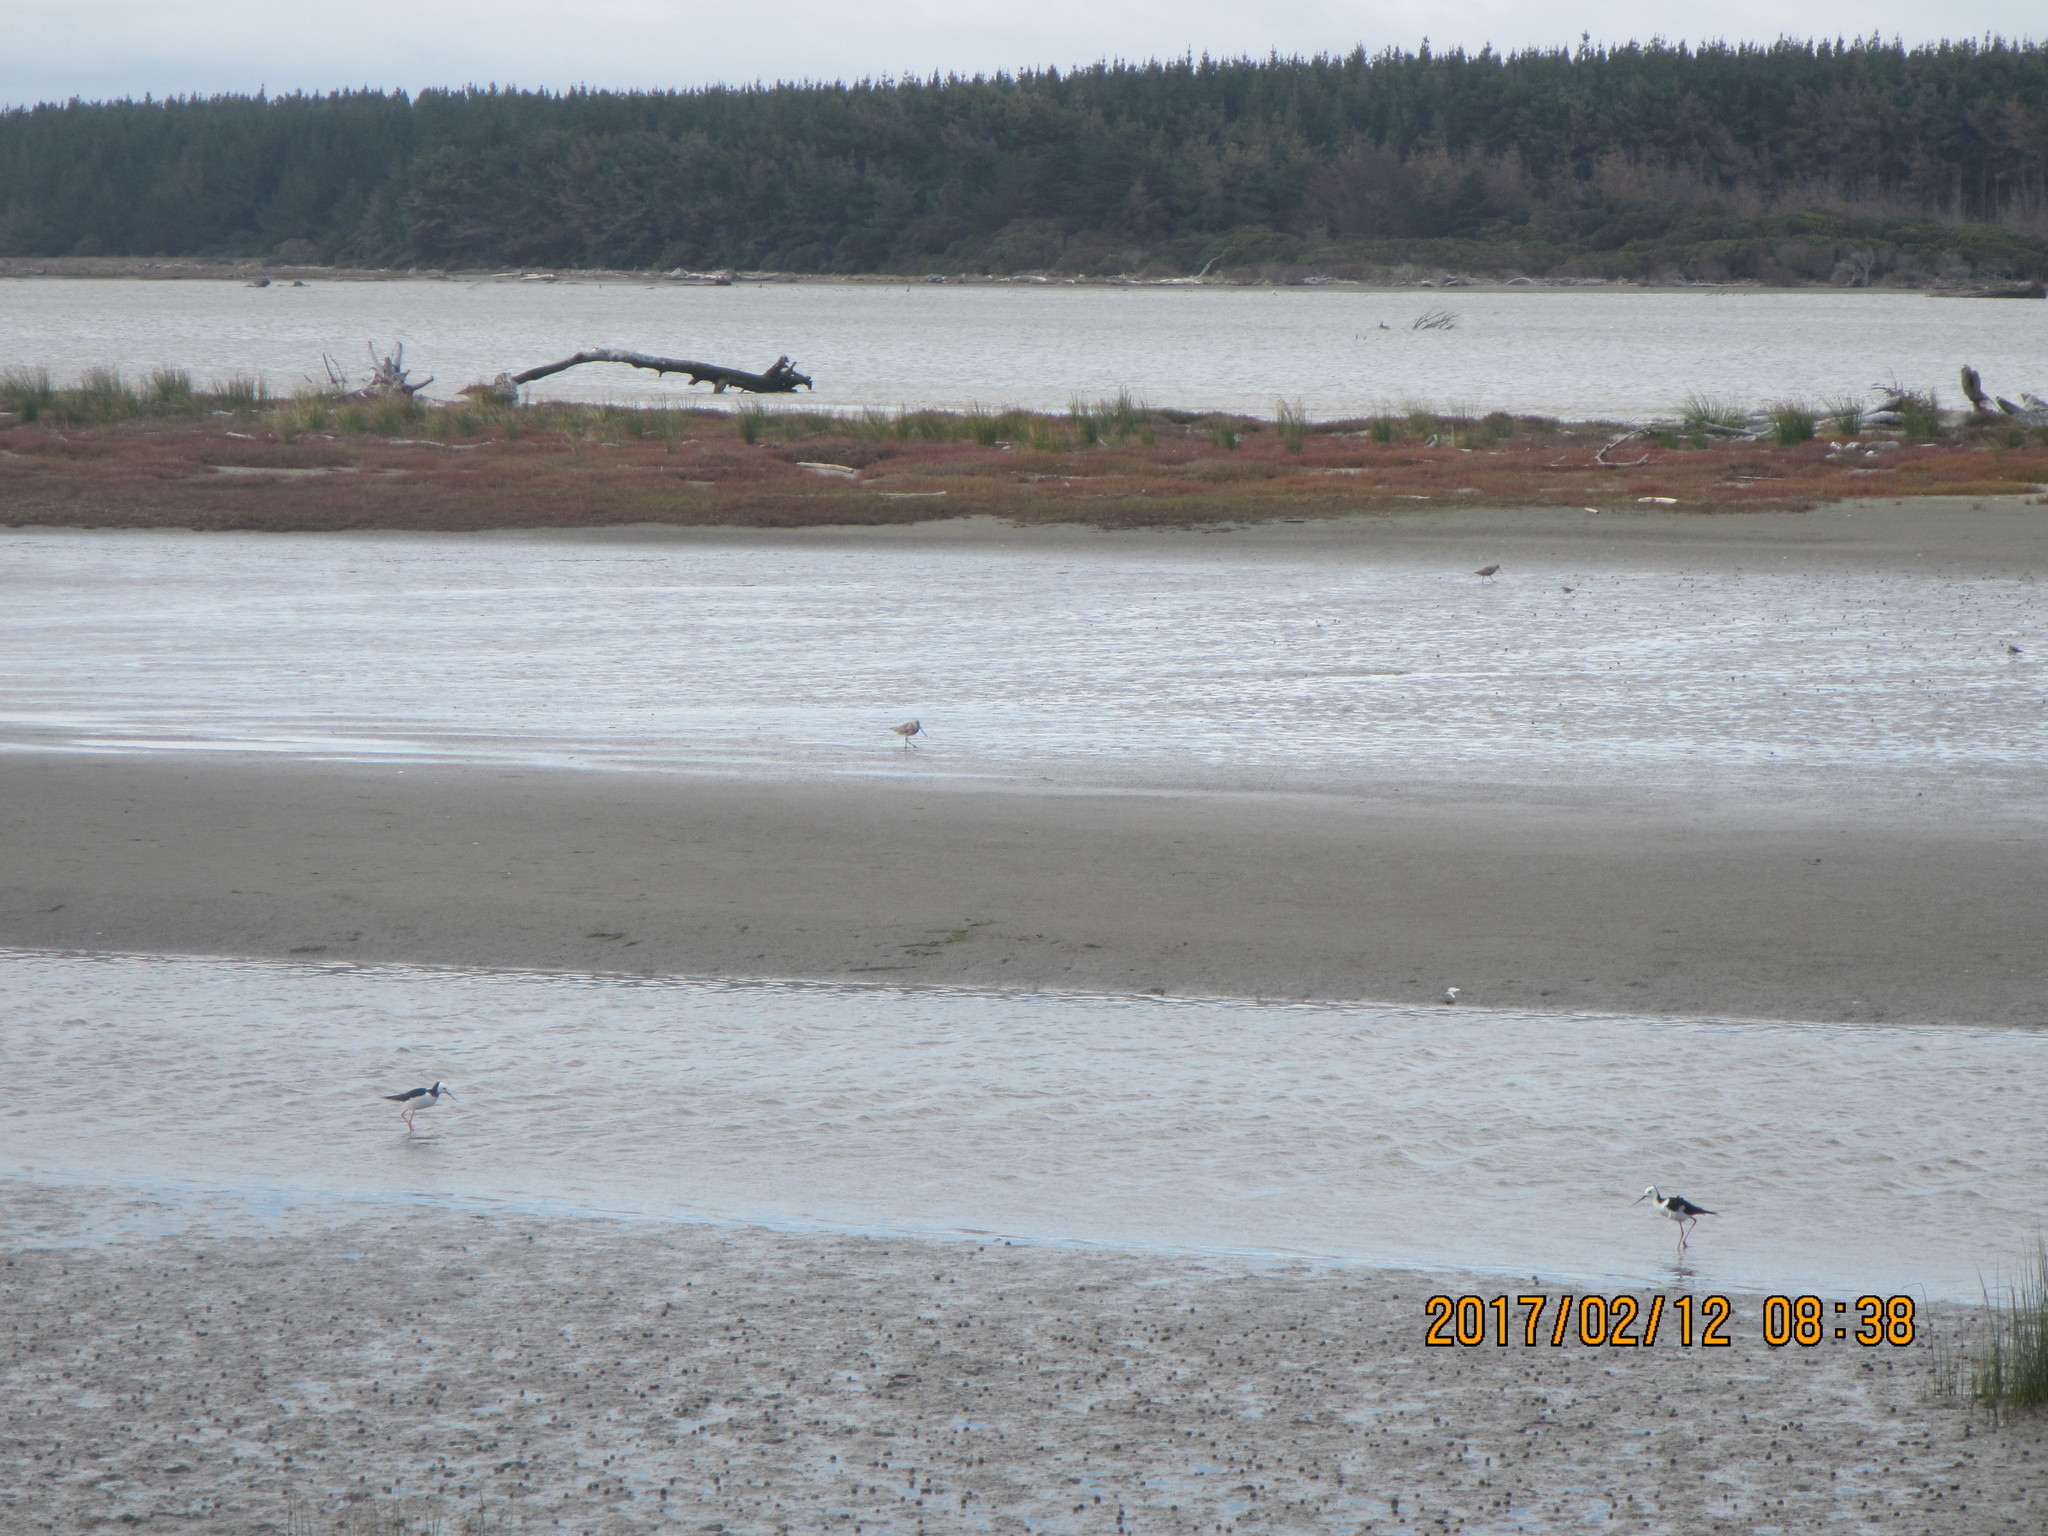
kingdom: Animalia
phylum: Chordata
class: Aves
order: Charadriiformes
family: Recurvirostridae
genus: Himantopus
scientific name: Himantopus leucocephalus
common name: White-headed stilt
